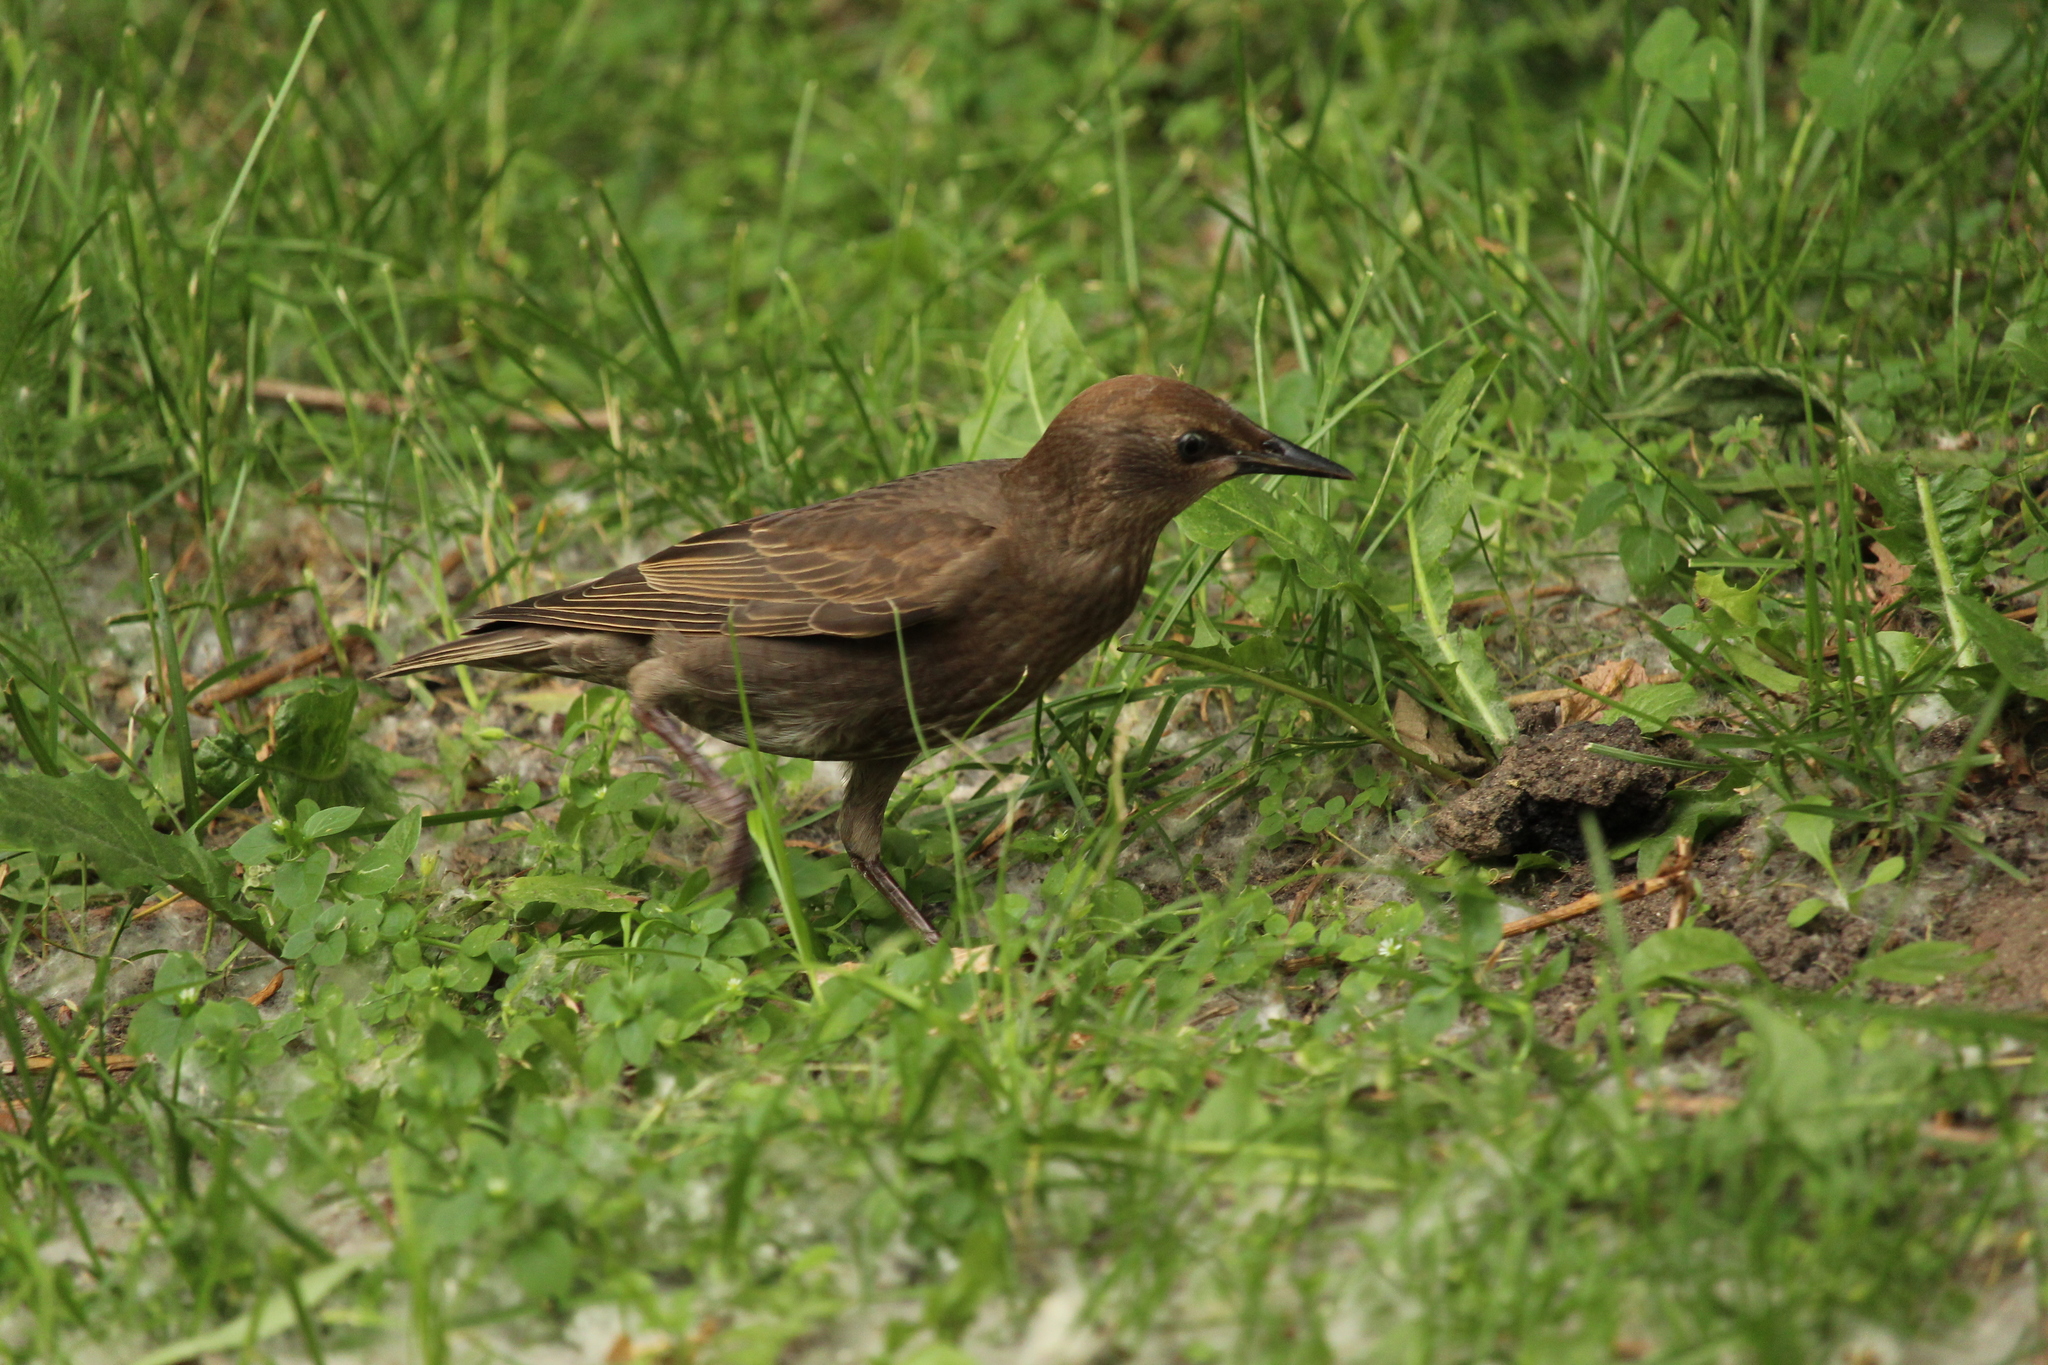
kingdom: Animalia
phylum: Chordata
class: Aves
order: Passeriformes
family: Sturnidae
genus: Sturnus
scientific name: Sturnus vulgaris
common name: Common starling
